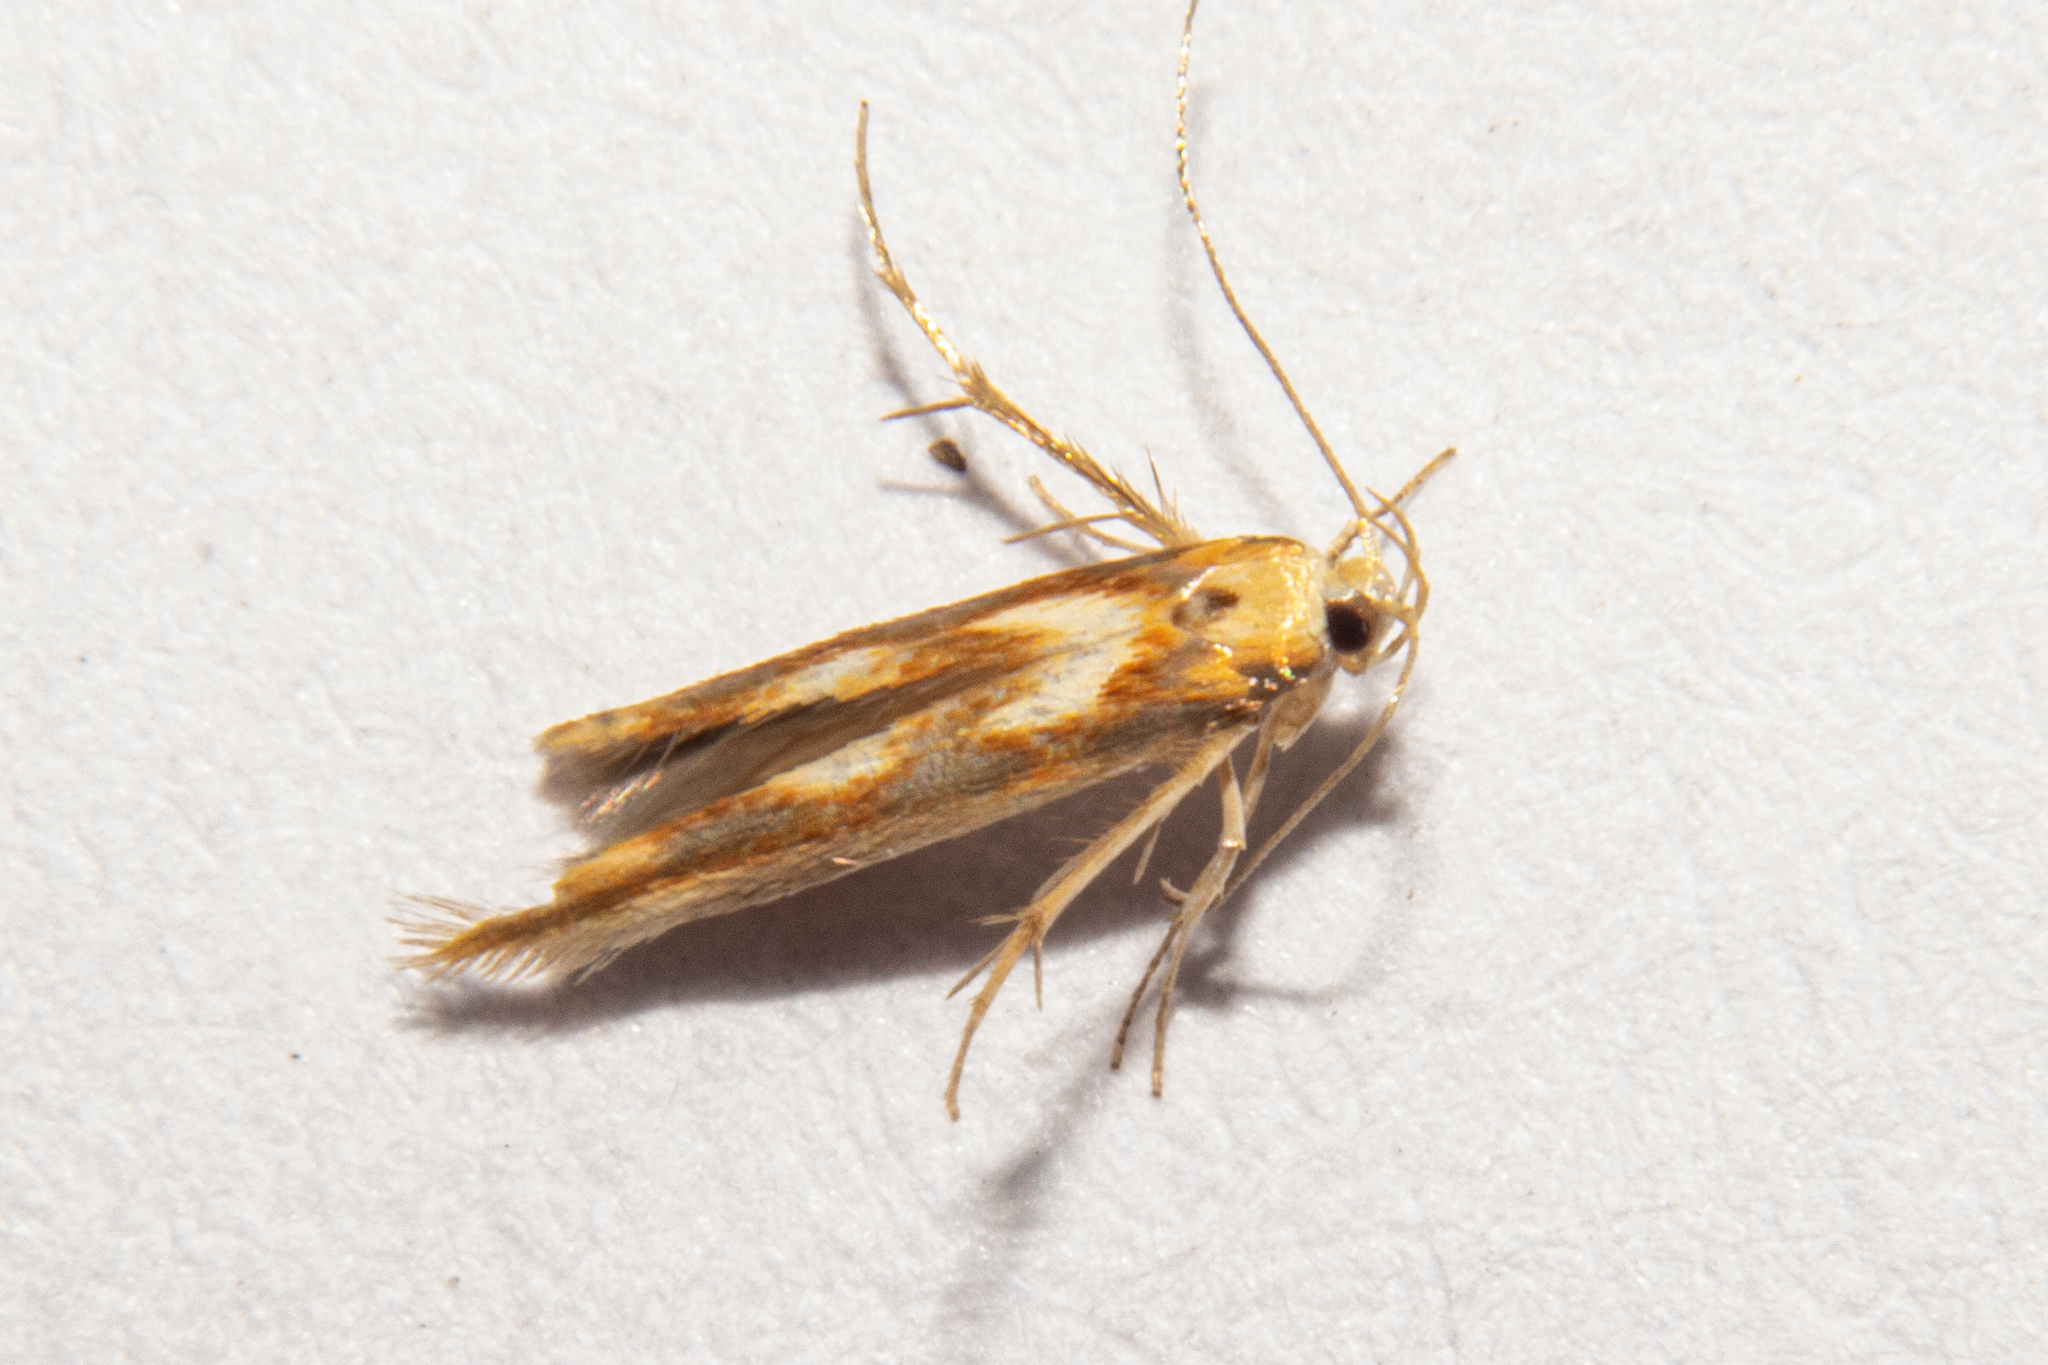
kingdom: Animalia
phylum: Arthropoda
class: Insecta
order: Lepidoptera
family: Stathmopodidae
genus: Stathmopoda
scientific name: Stathmopoda caminora
